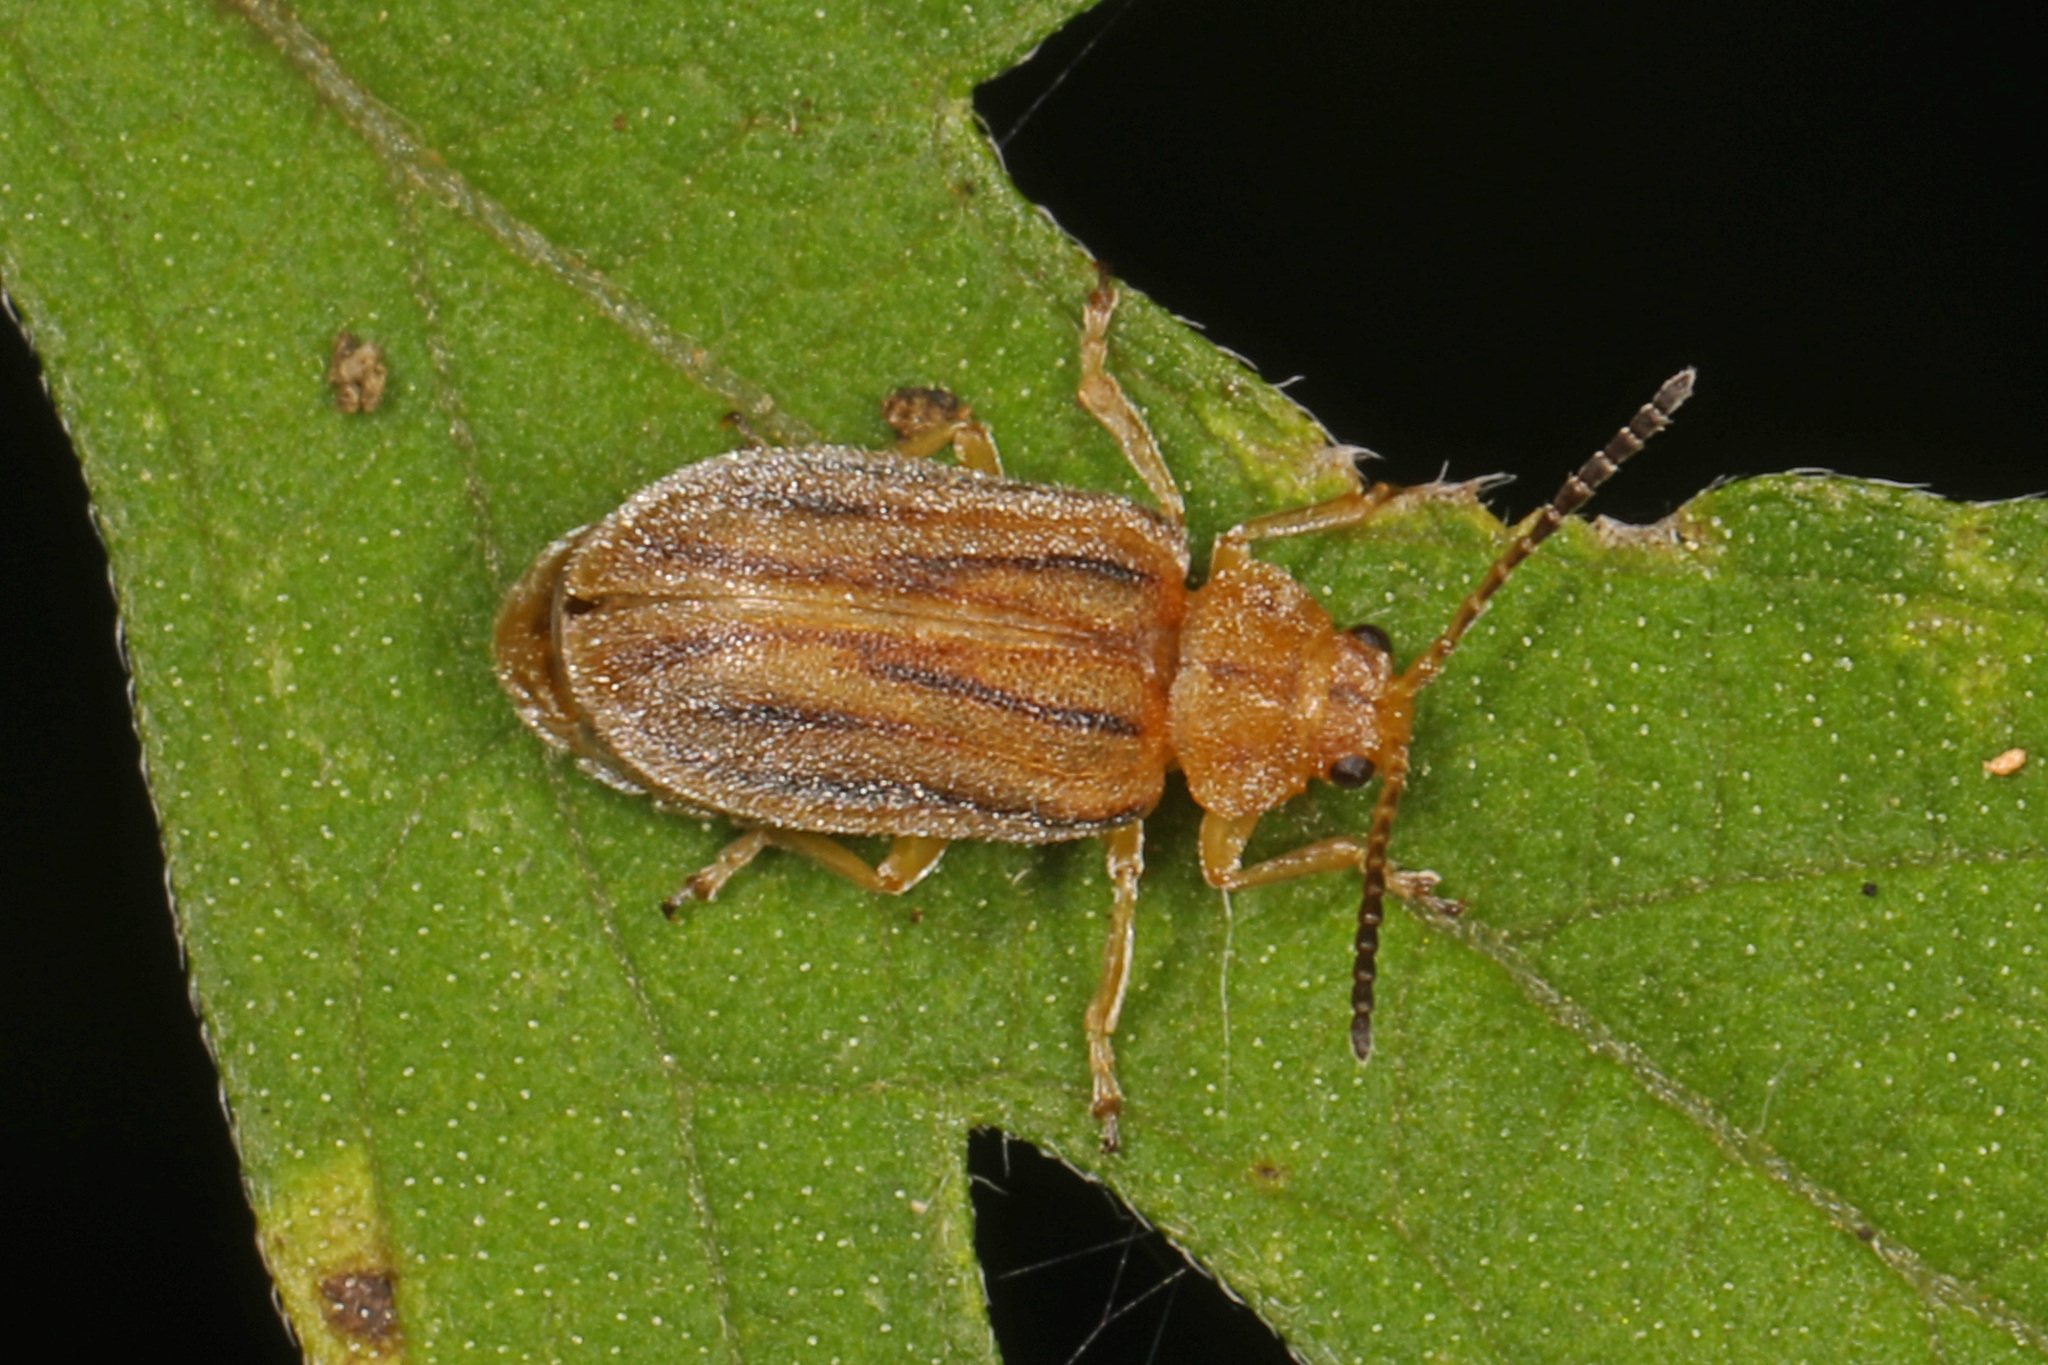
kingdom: Animalia
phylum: Arthropoda
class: Insecta
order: Coleoptera
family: Chrysomelidae
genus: Ophraella
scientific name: Ophraella communa
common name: Ragweed leaf beetle
